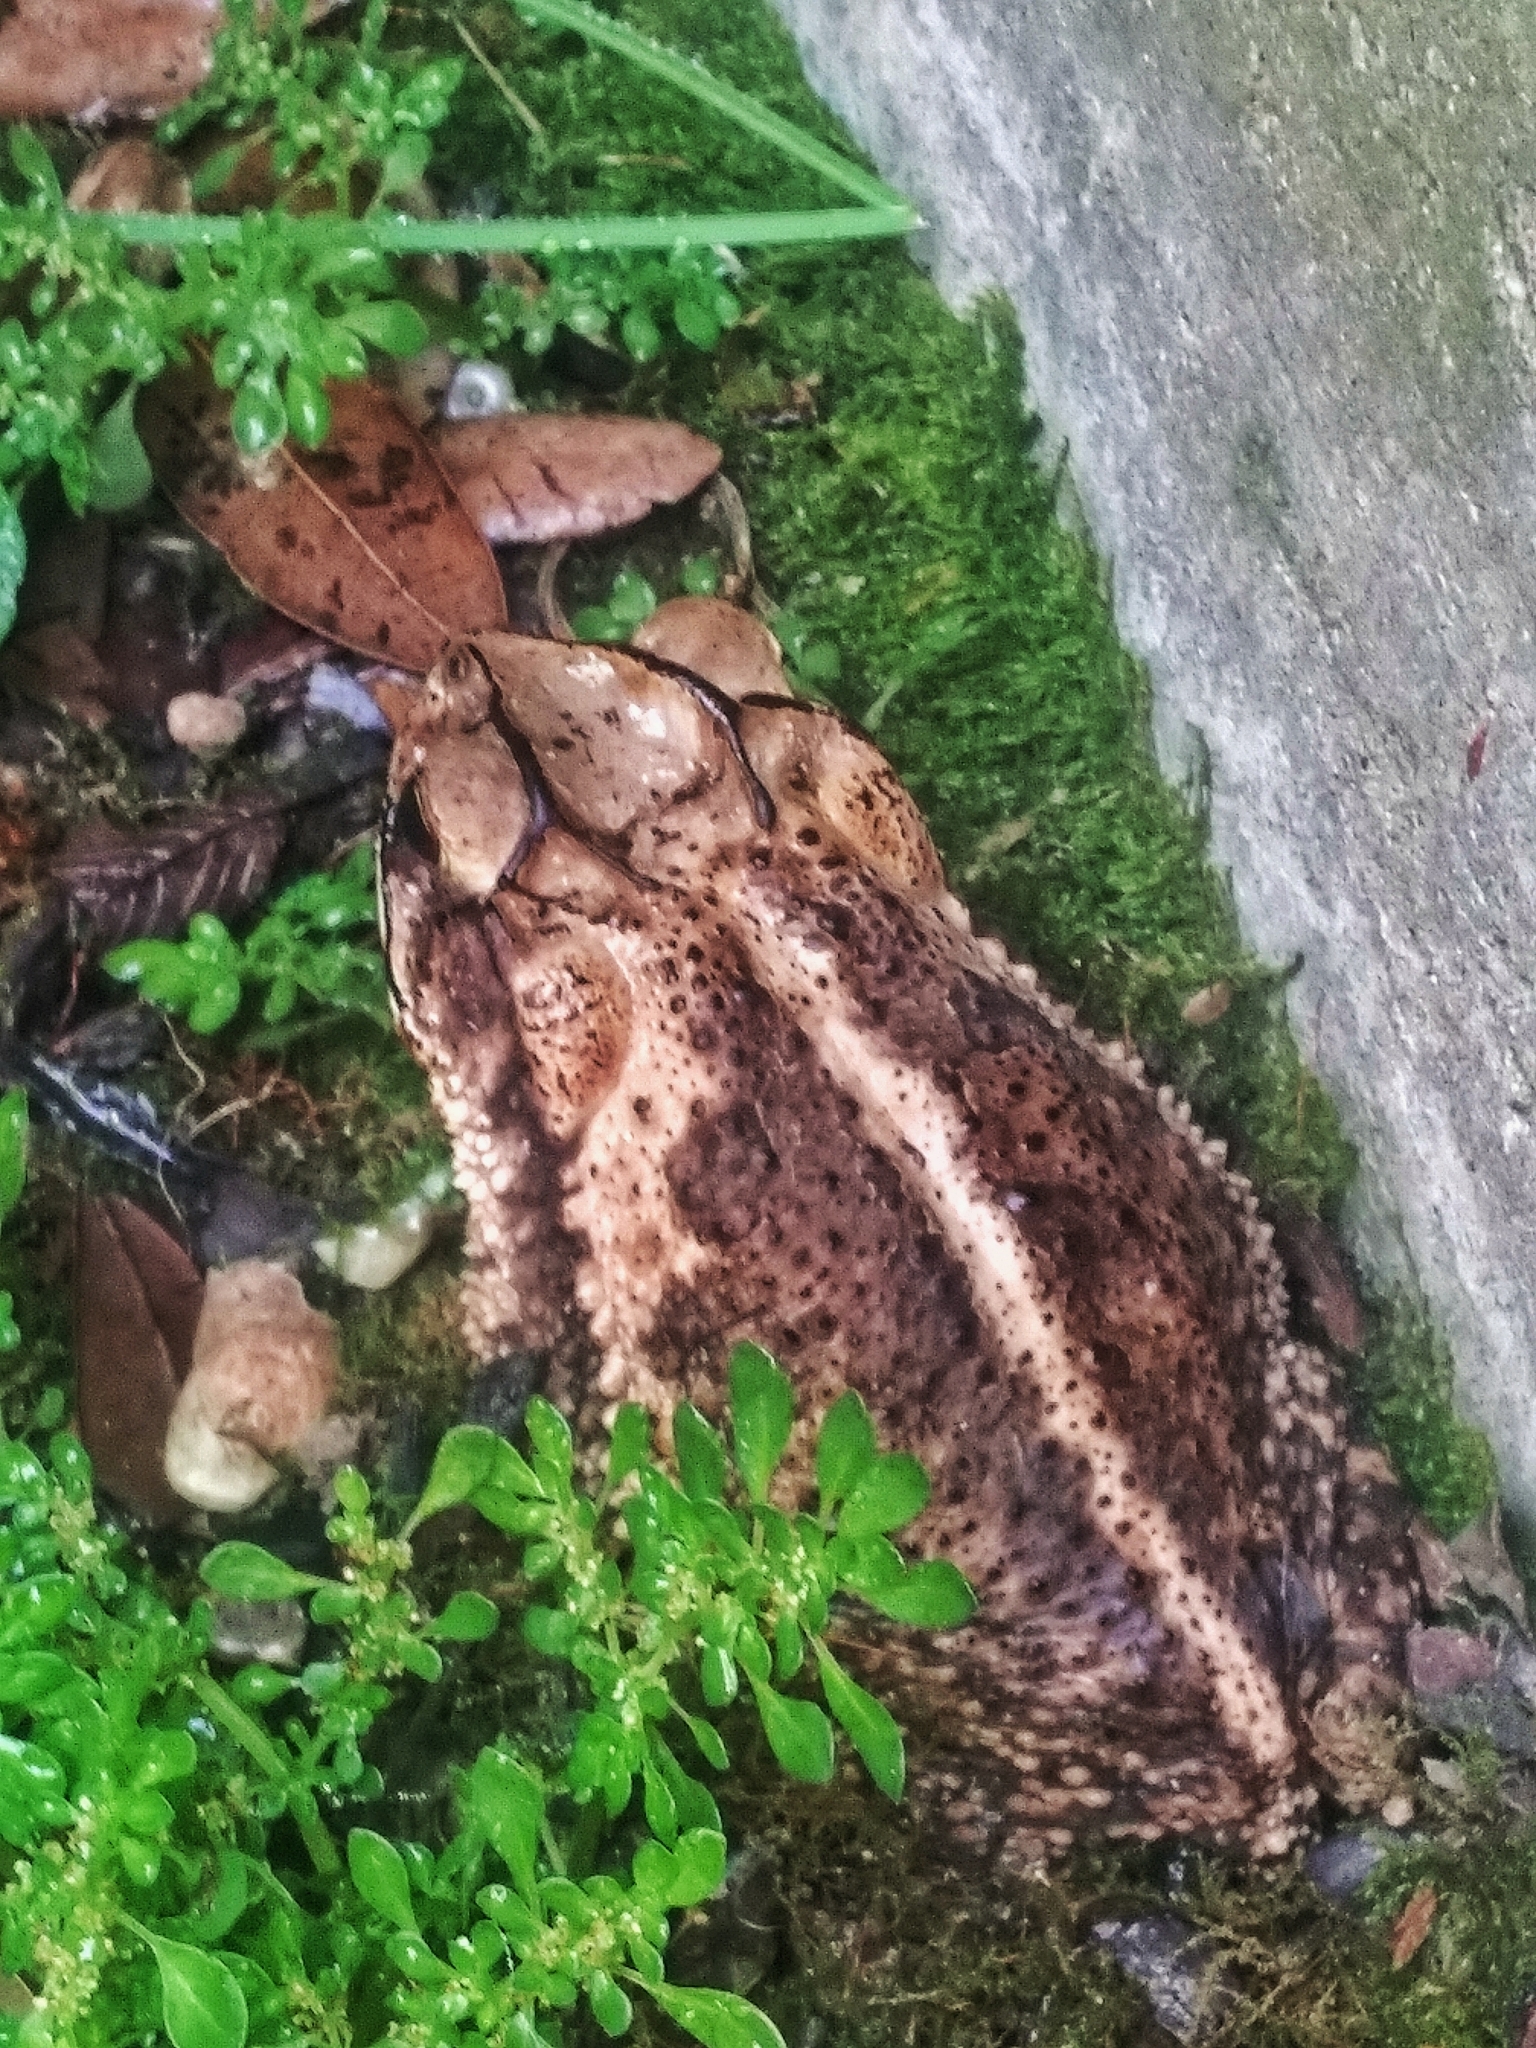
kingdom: Animalia
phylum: Chordata
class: Amphibia
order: Anura
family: Bufonidae
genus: Incilius
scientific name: Incilius nebulifer
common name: Gulf coast toad
